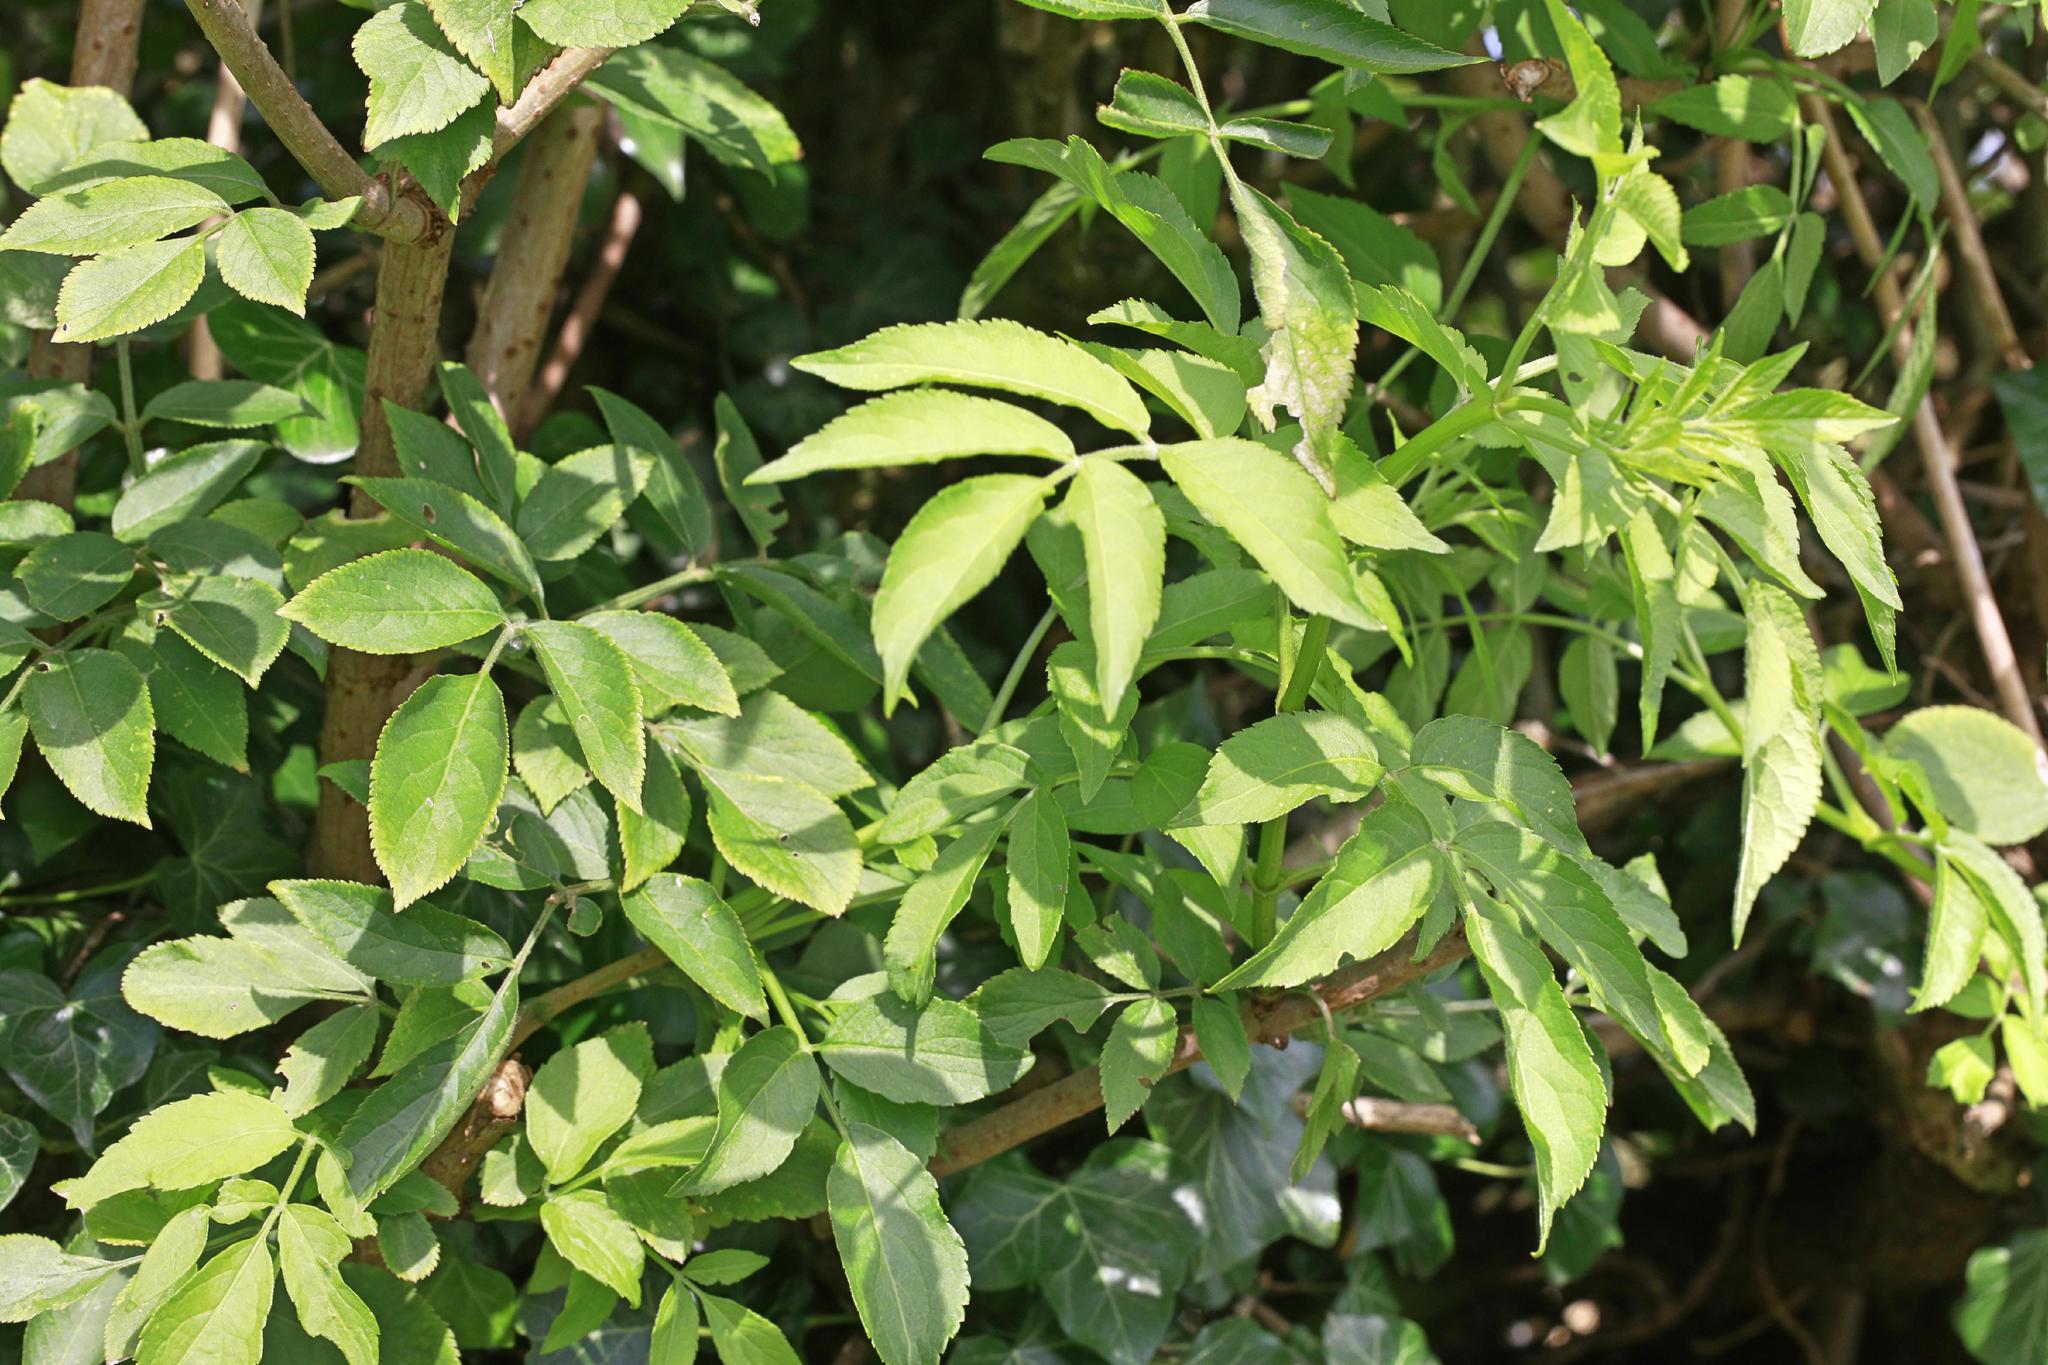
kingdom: Plantae
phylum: Tracheophyta
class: Magnoliopsida
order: Dipsacales
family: Viburnaceae
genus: Sambucus
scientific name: Sambucus nigra
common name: Elder
